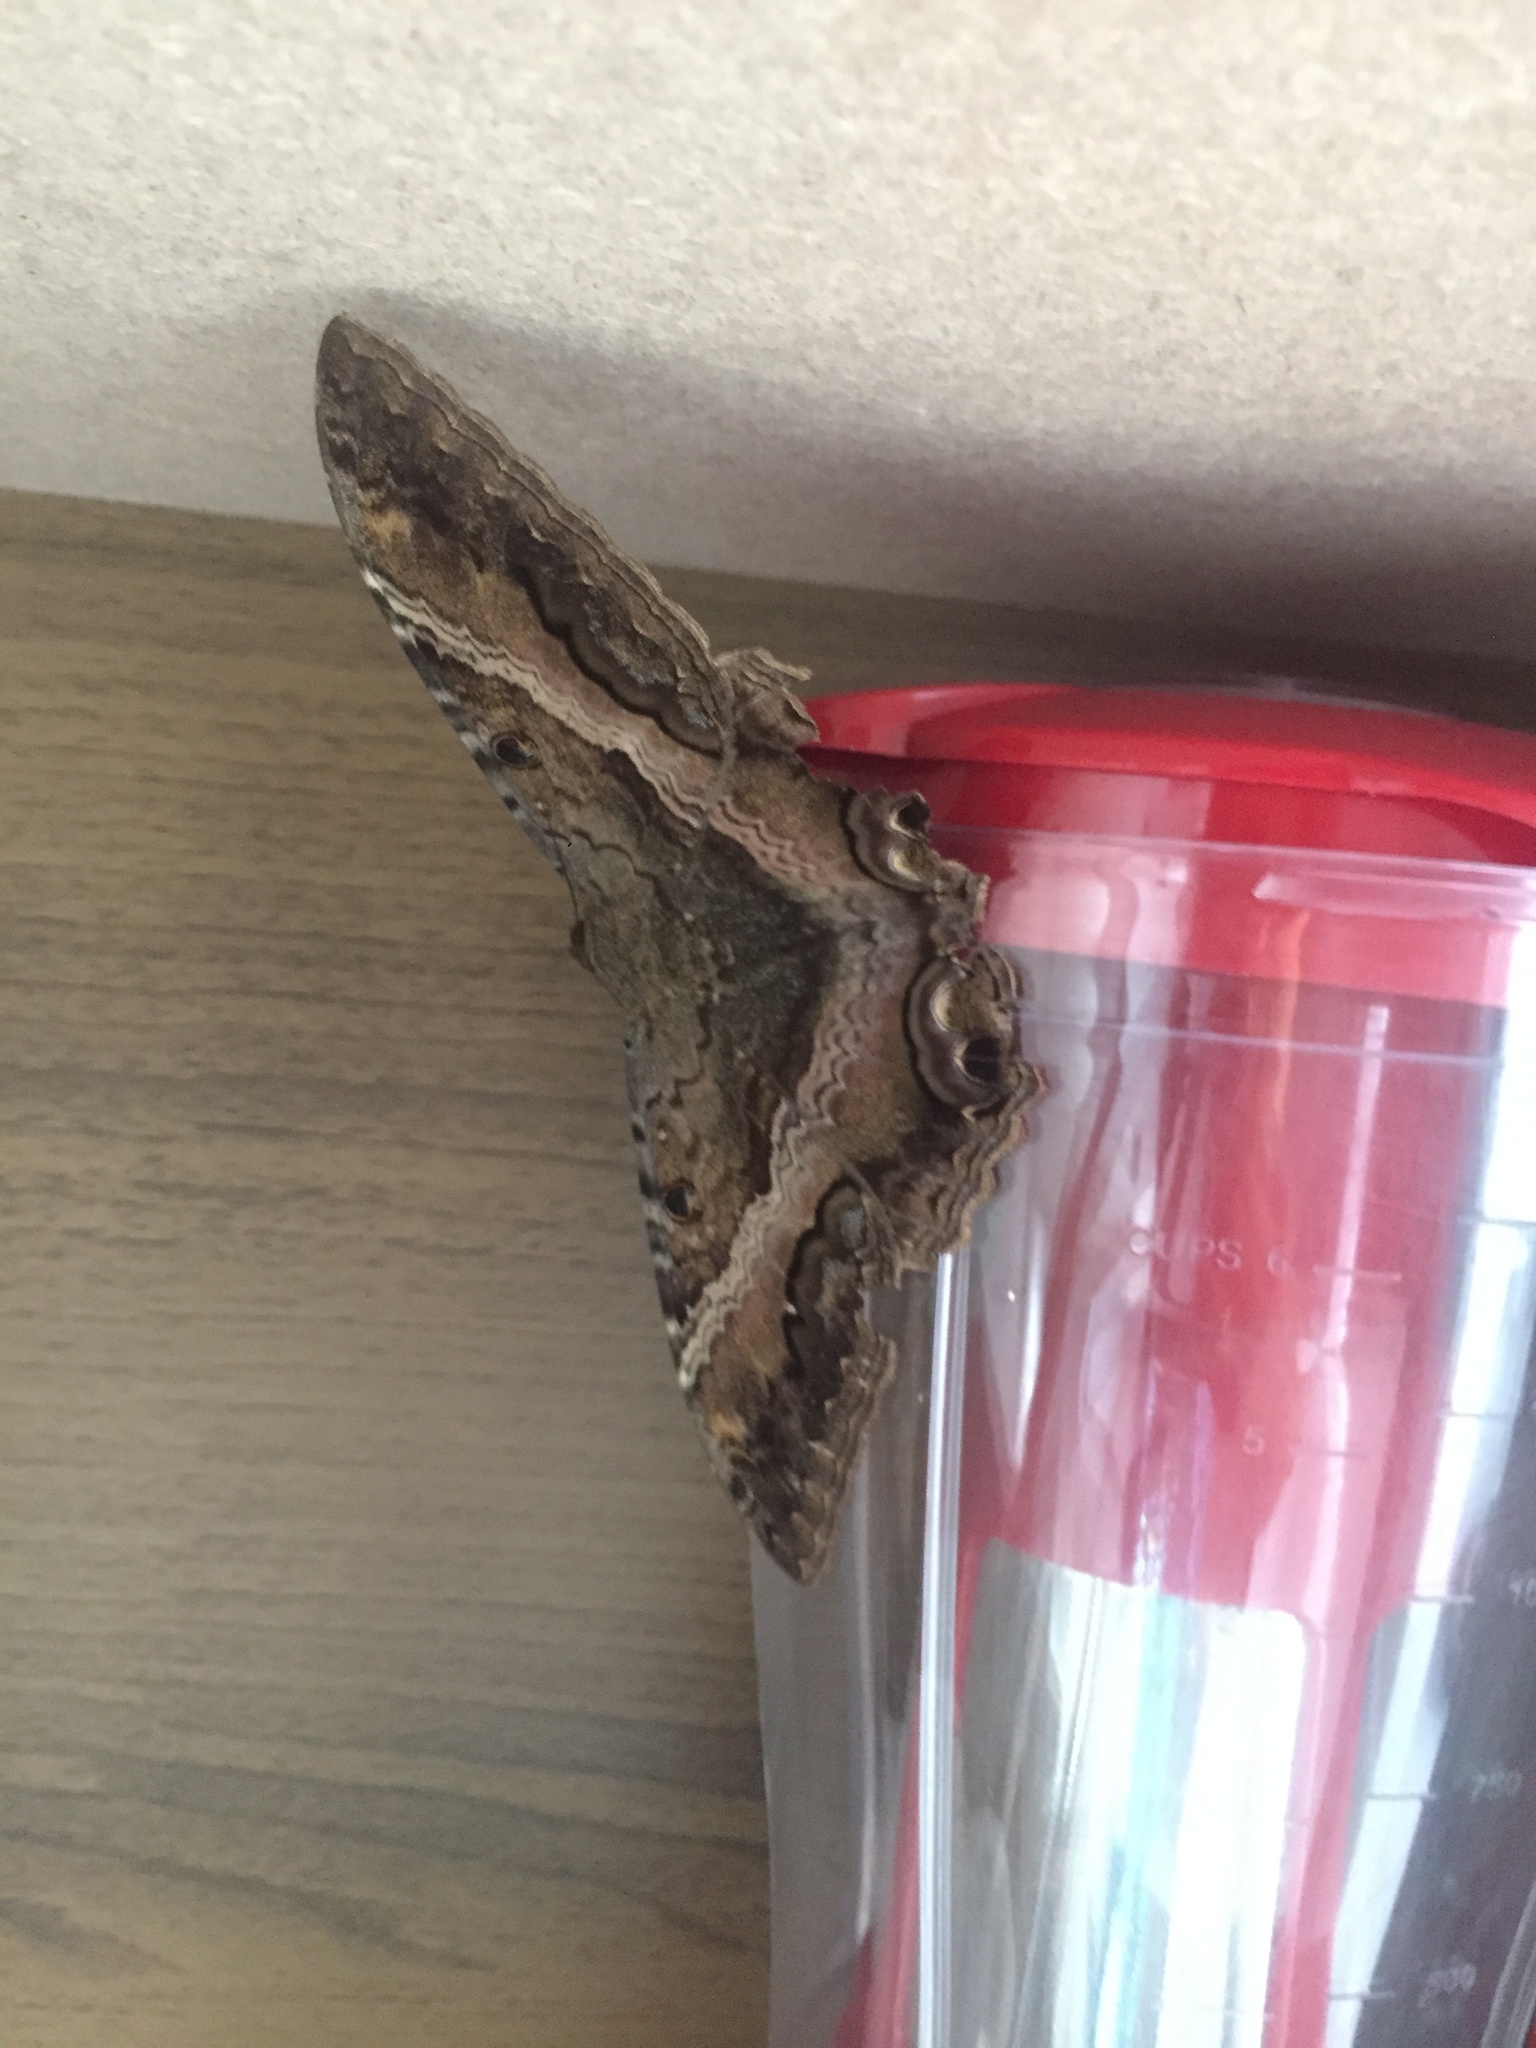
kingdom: Animalia
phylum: Arthropoda
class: Insecta
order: Lepidoptera
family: Erebidae
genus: Ascalapha
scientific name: Ascalapha odorata
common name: Black witch
